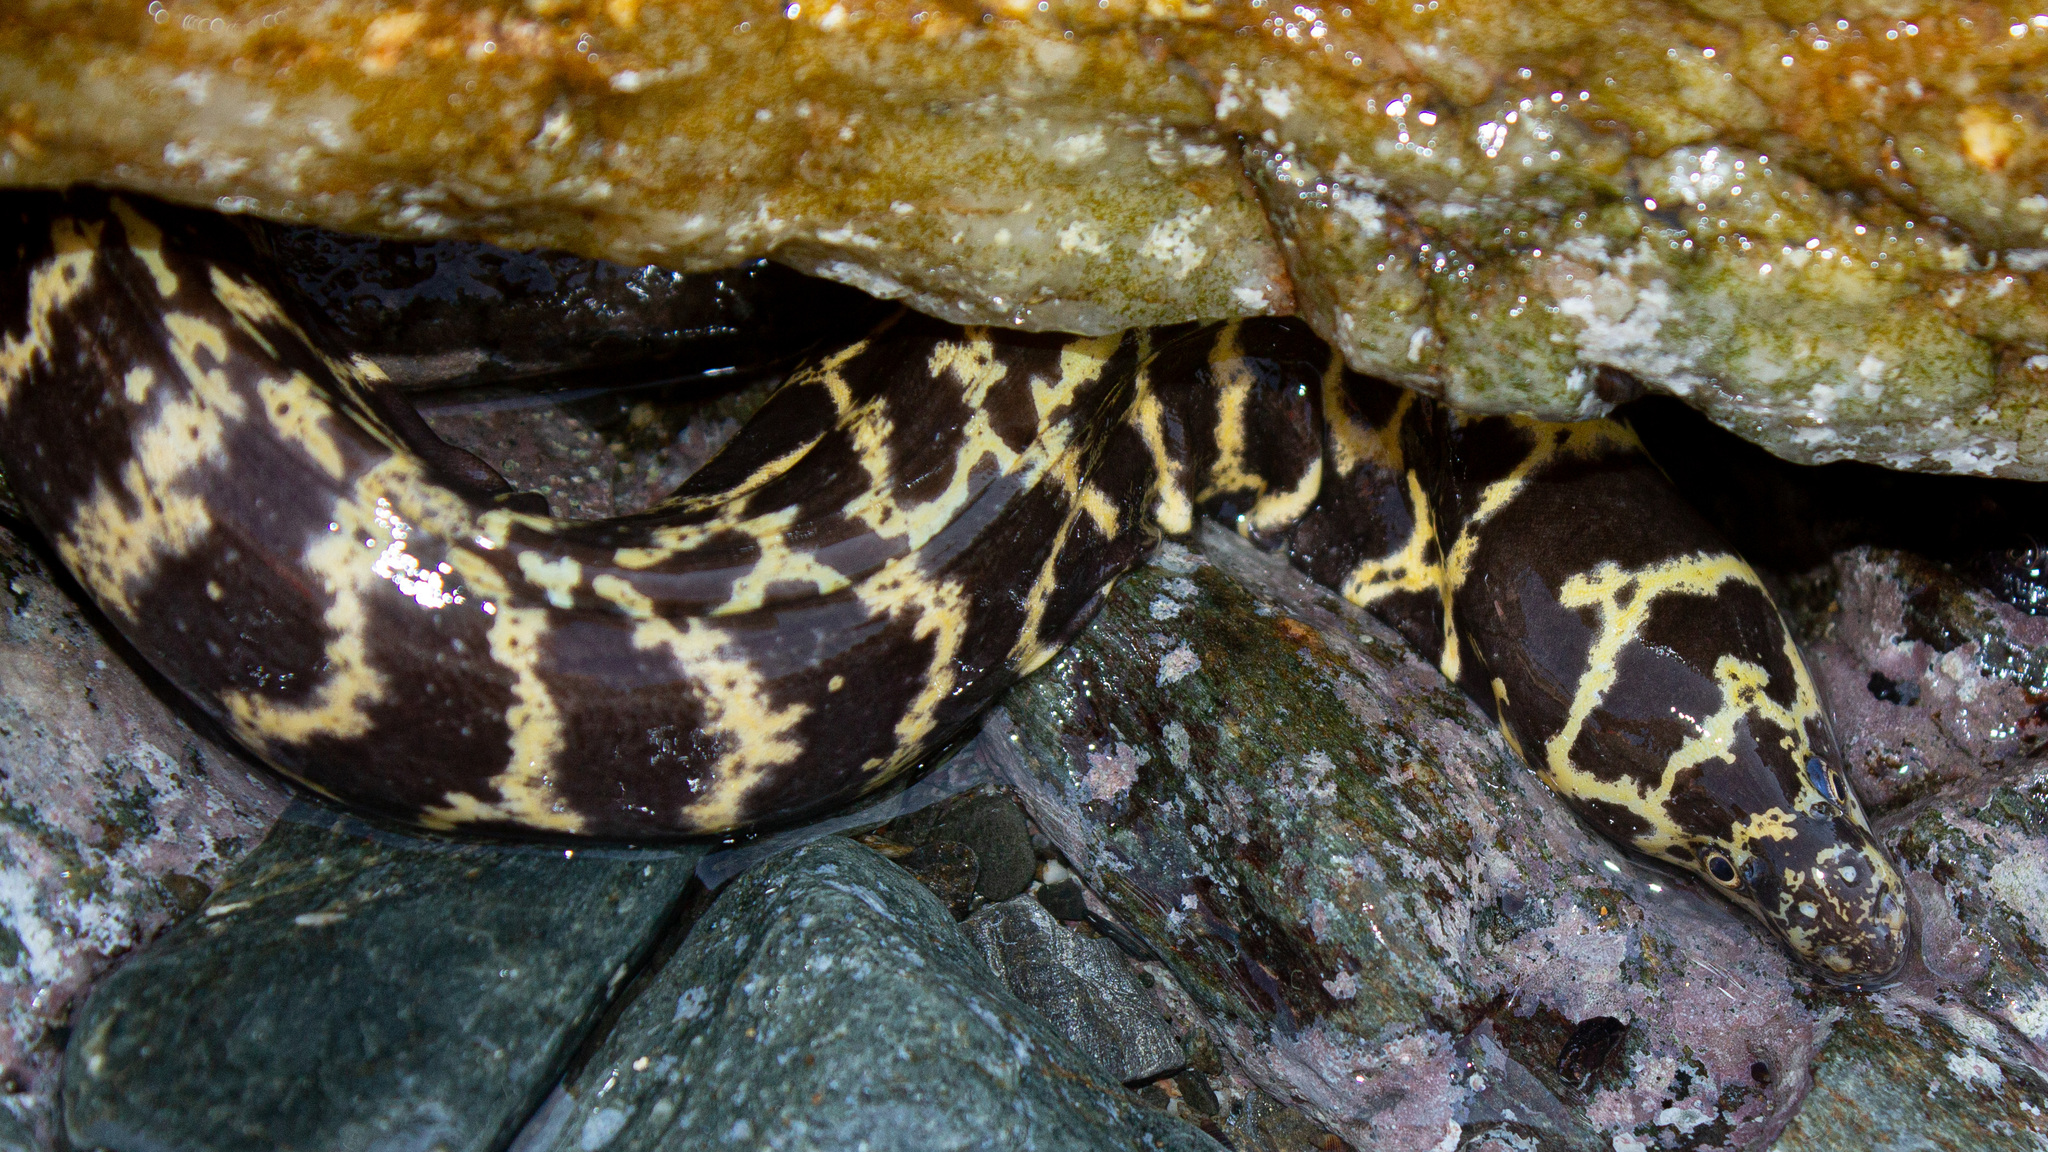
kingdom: Animalia
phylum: Chordata
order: Anguilliformes
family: Muraenidae
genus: Echidna
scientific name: Echidna catenata
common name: Chain moray
